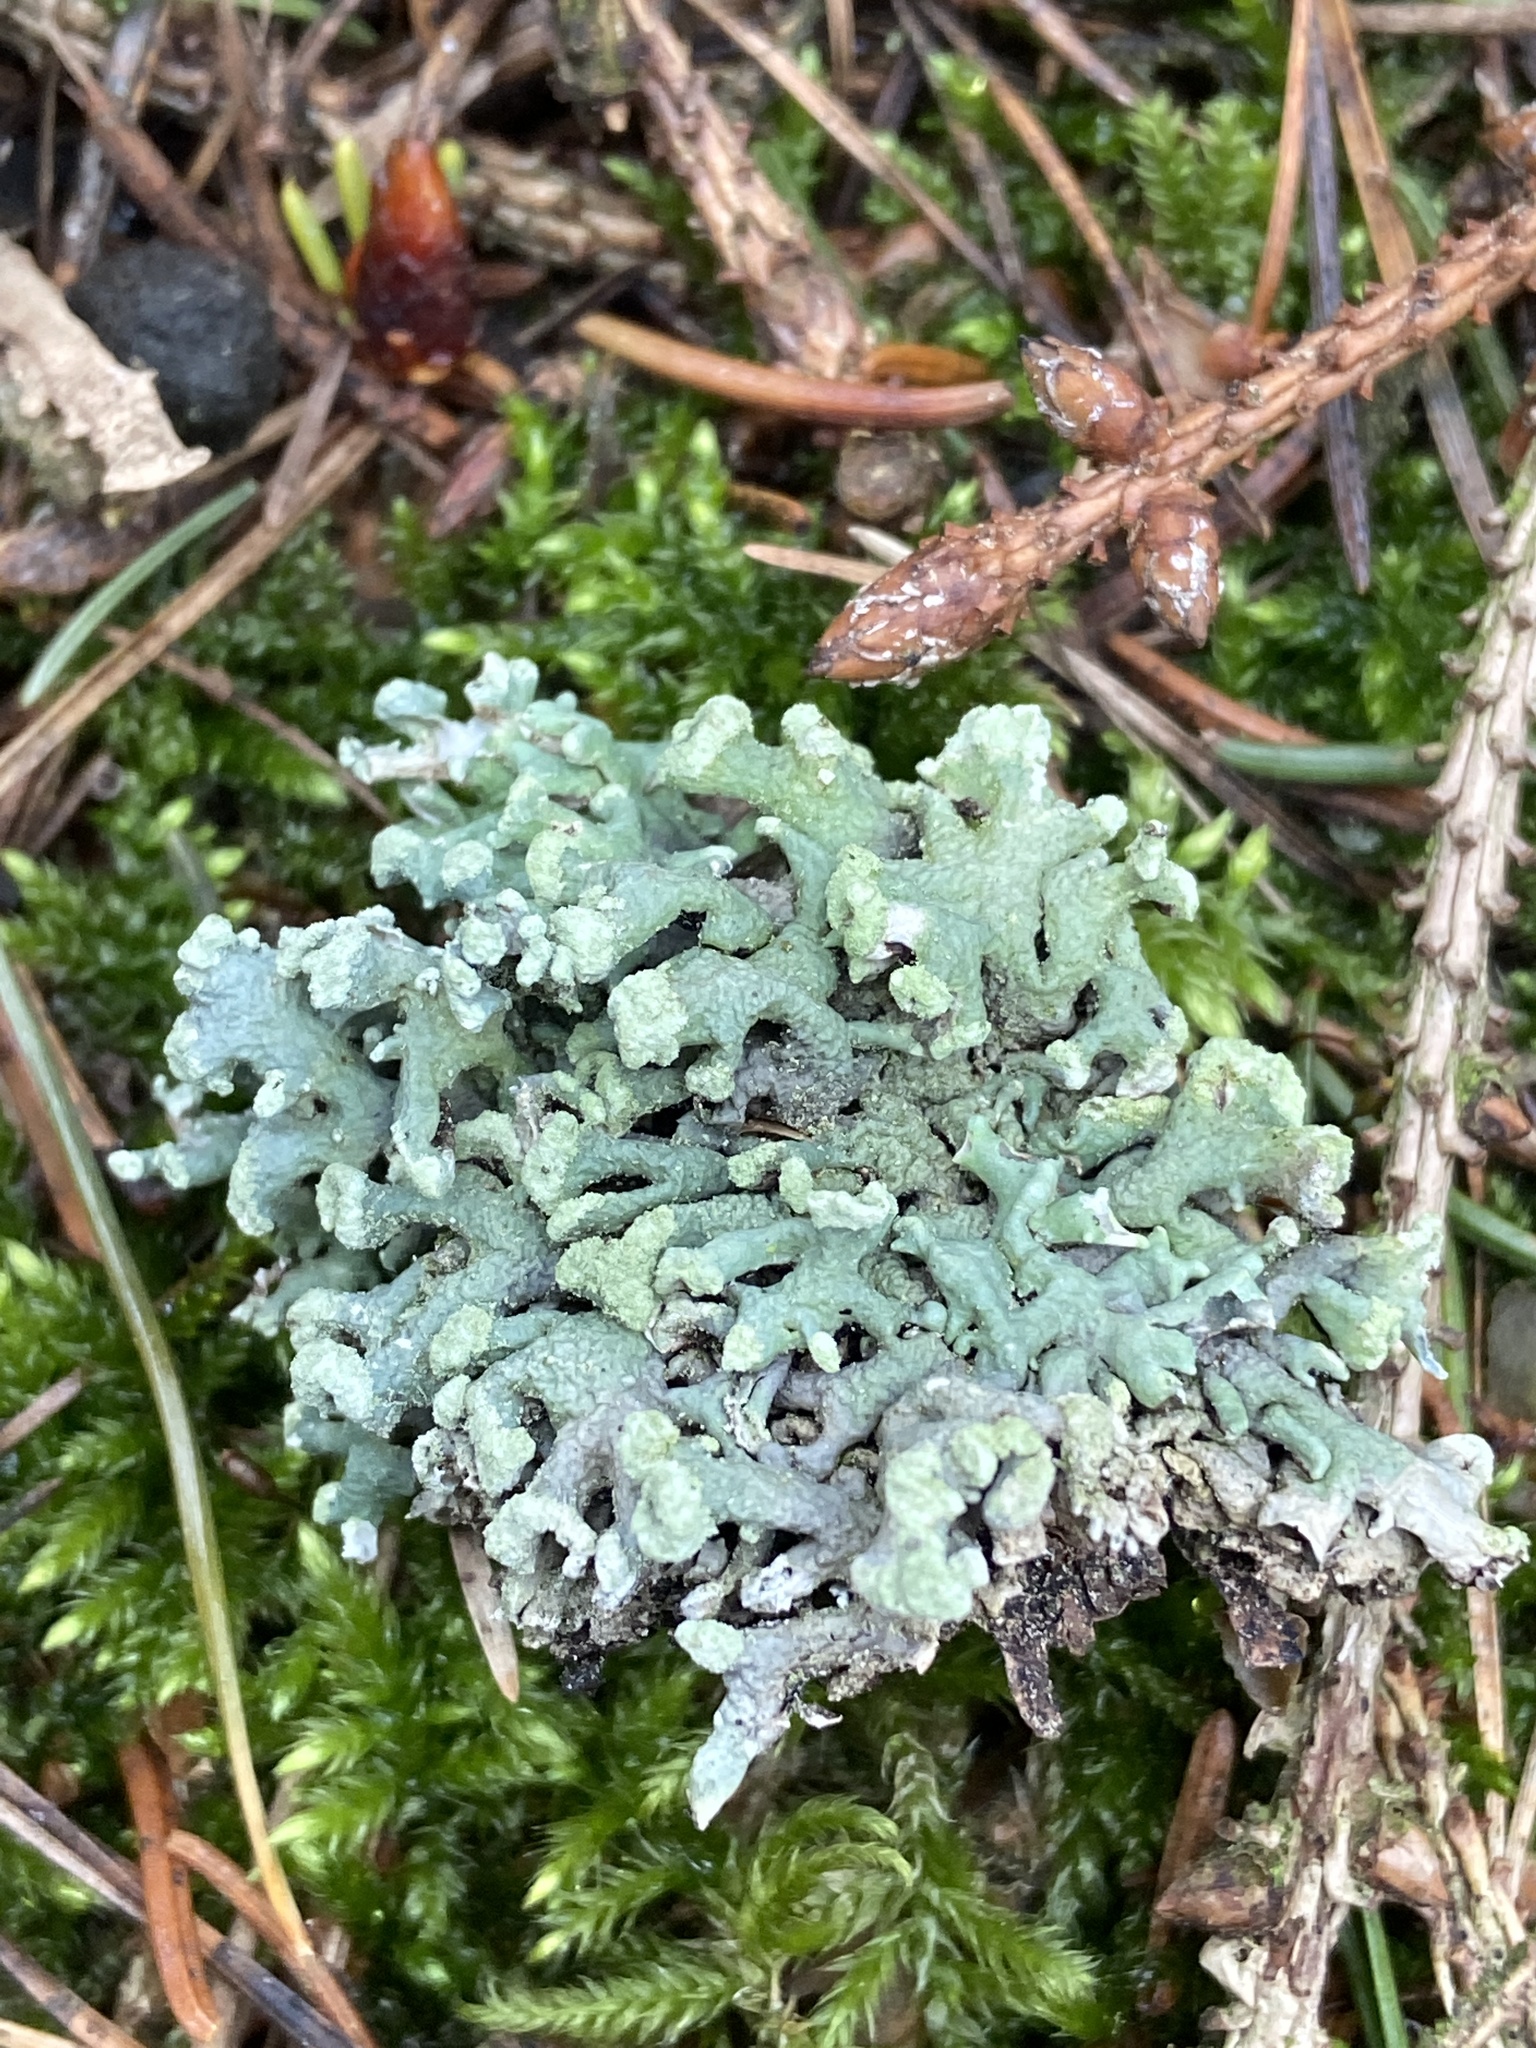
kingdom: Fungi
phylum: Ascomycota
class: Lecanoromycetes
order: Lecanorales
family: Parmeliaceae
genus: Hypogymnia
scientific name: Hypogymnia tubulosa
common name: Powder-headed tube lichen
